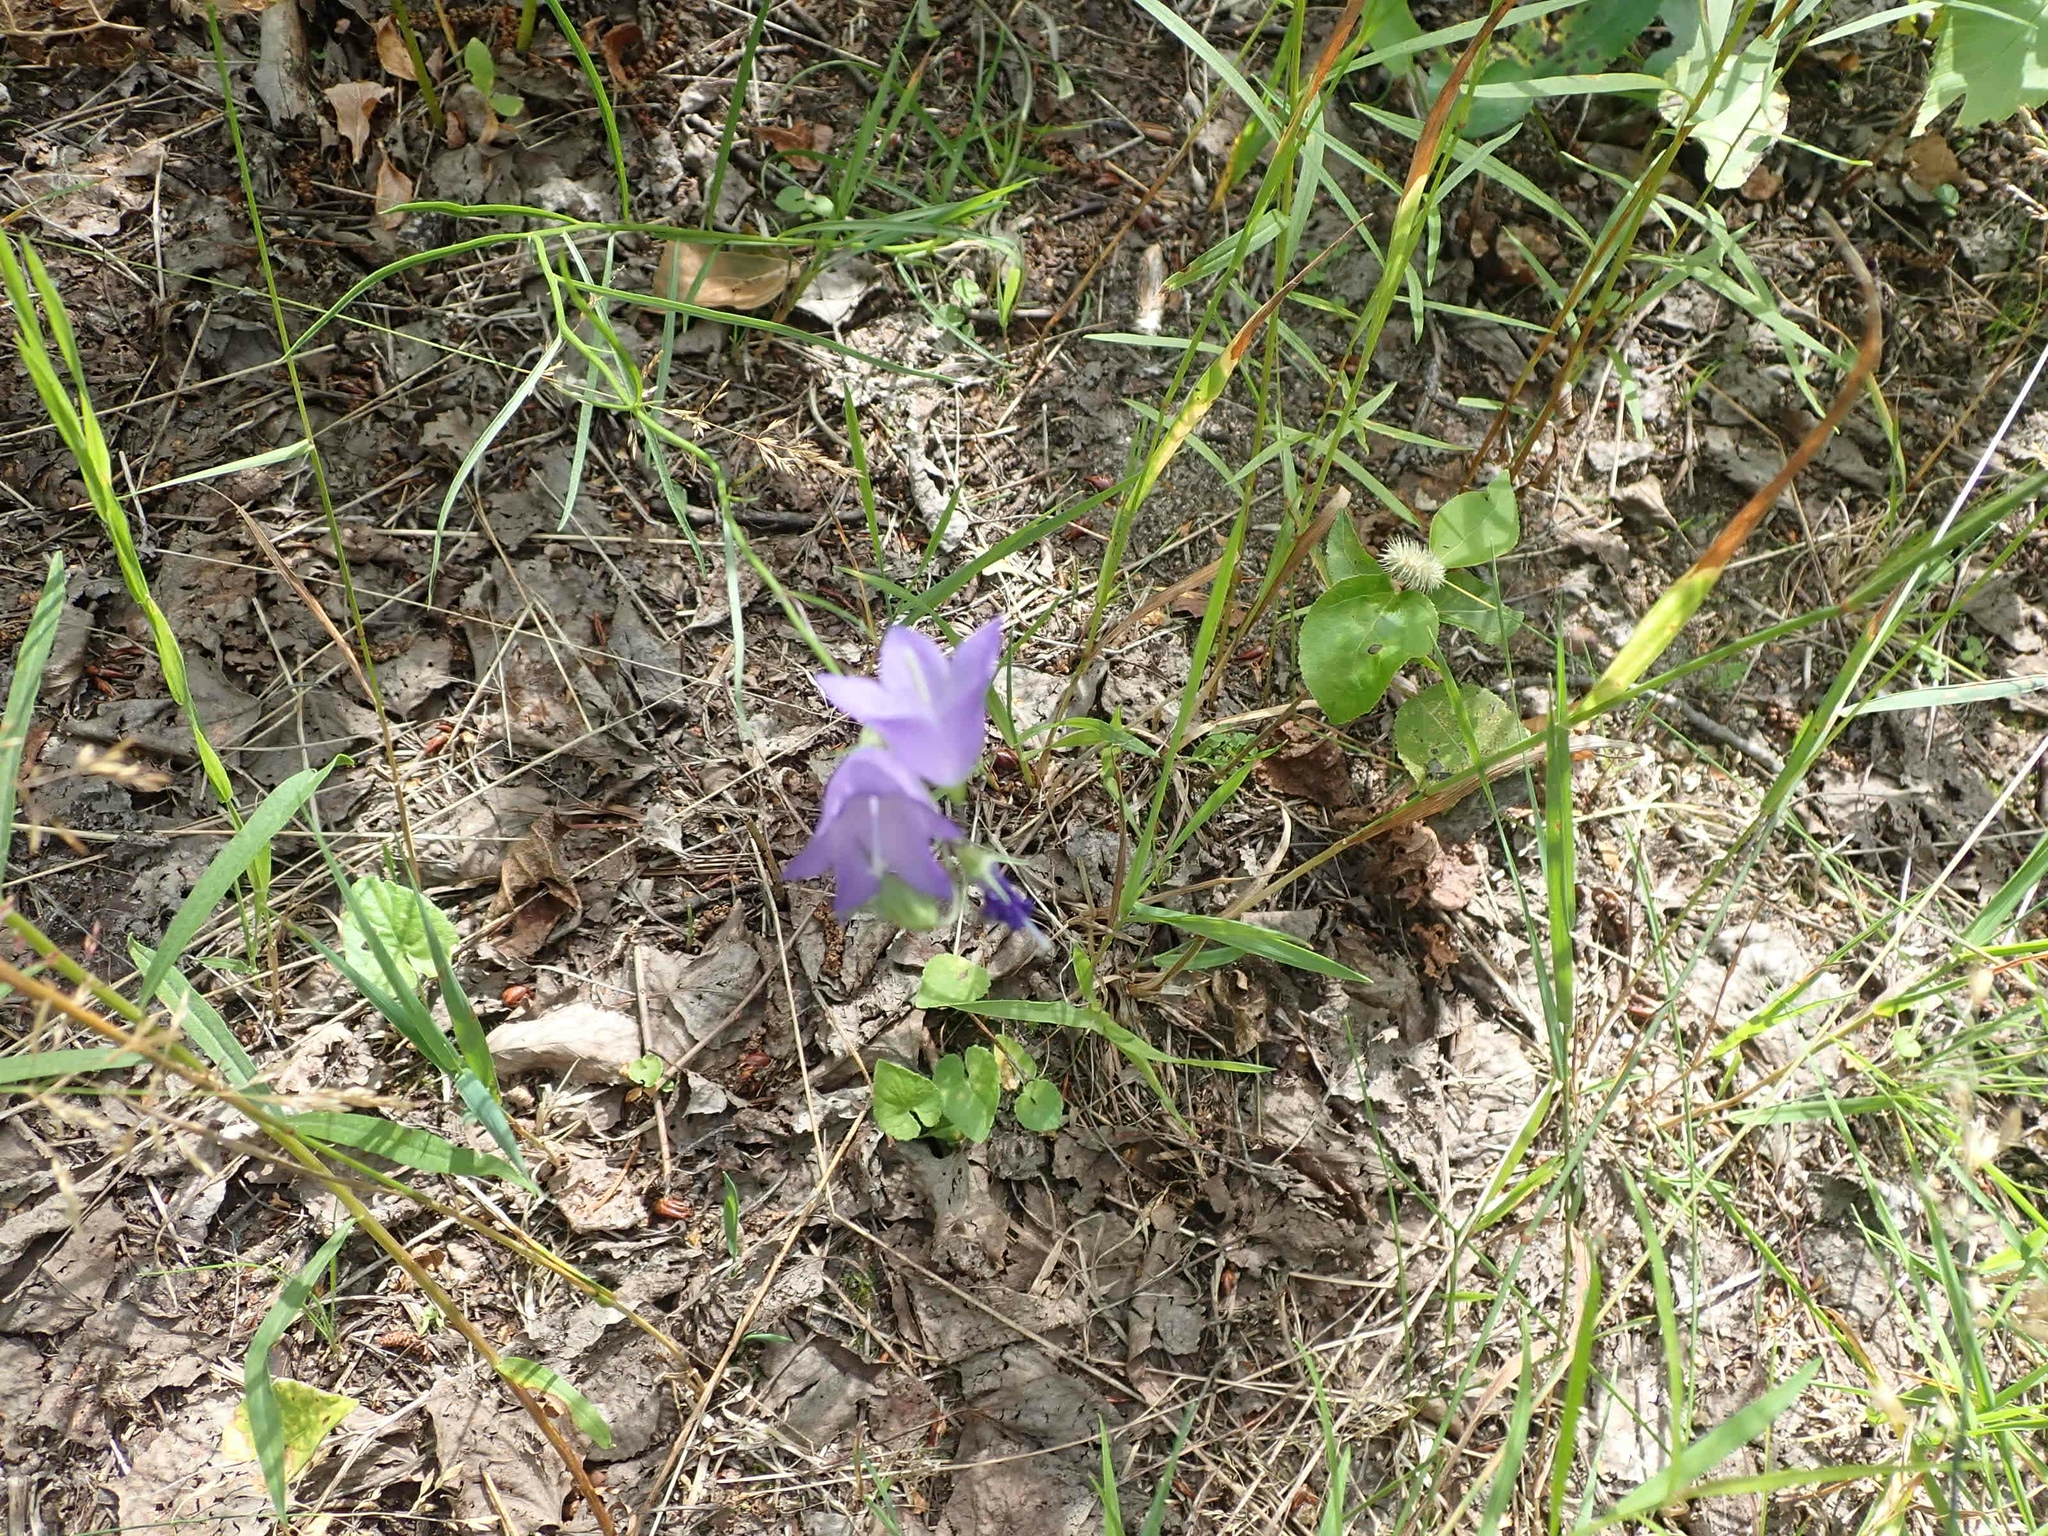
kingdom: Plantae
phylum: Tracheophyta
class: Magnoliopsida
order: Asterales
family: Campanulaceae
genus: Campanula
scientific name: Campanula petiolata
